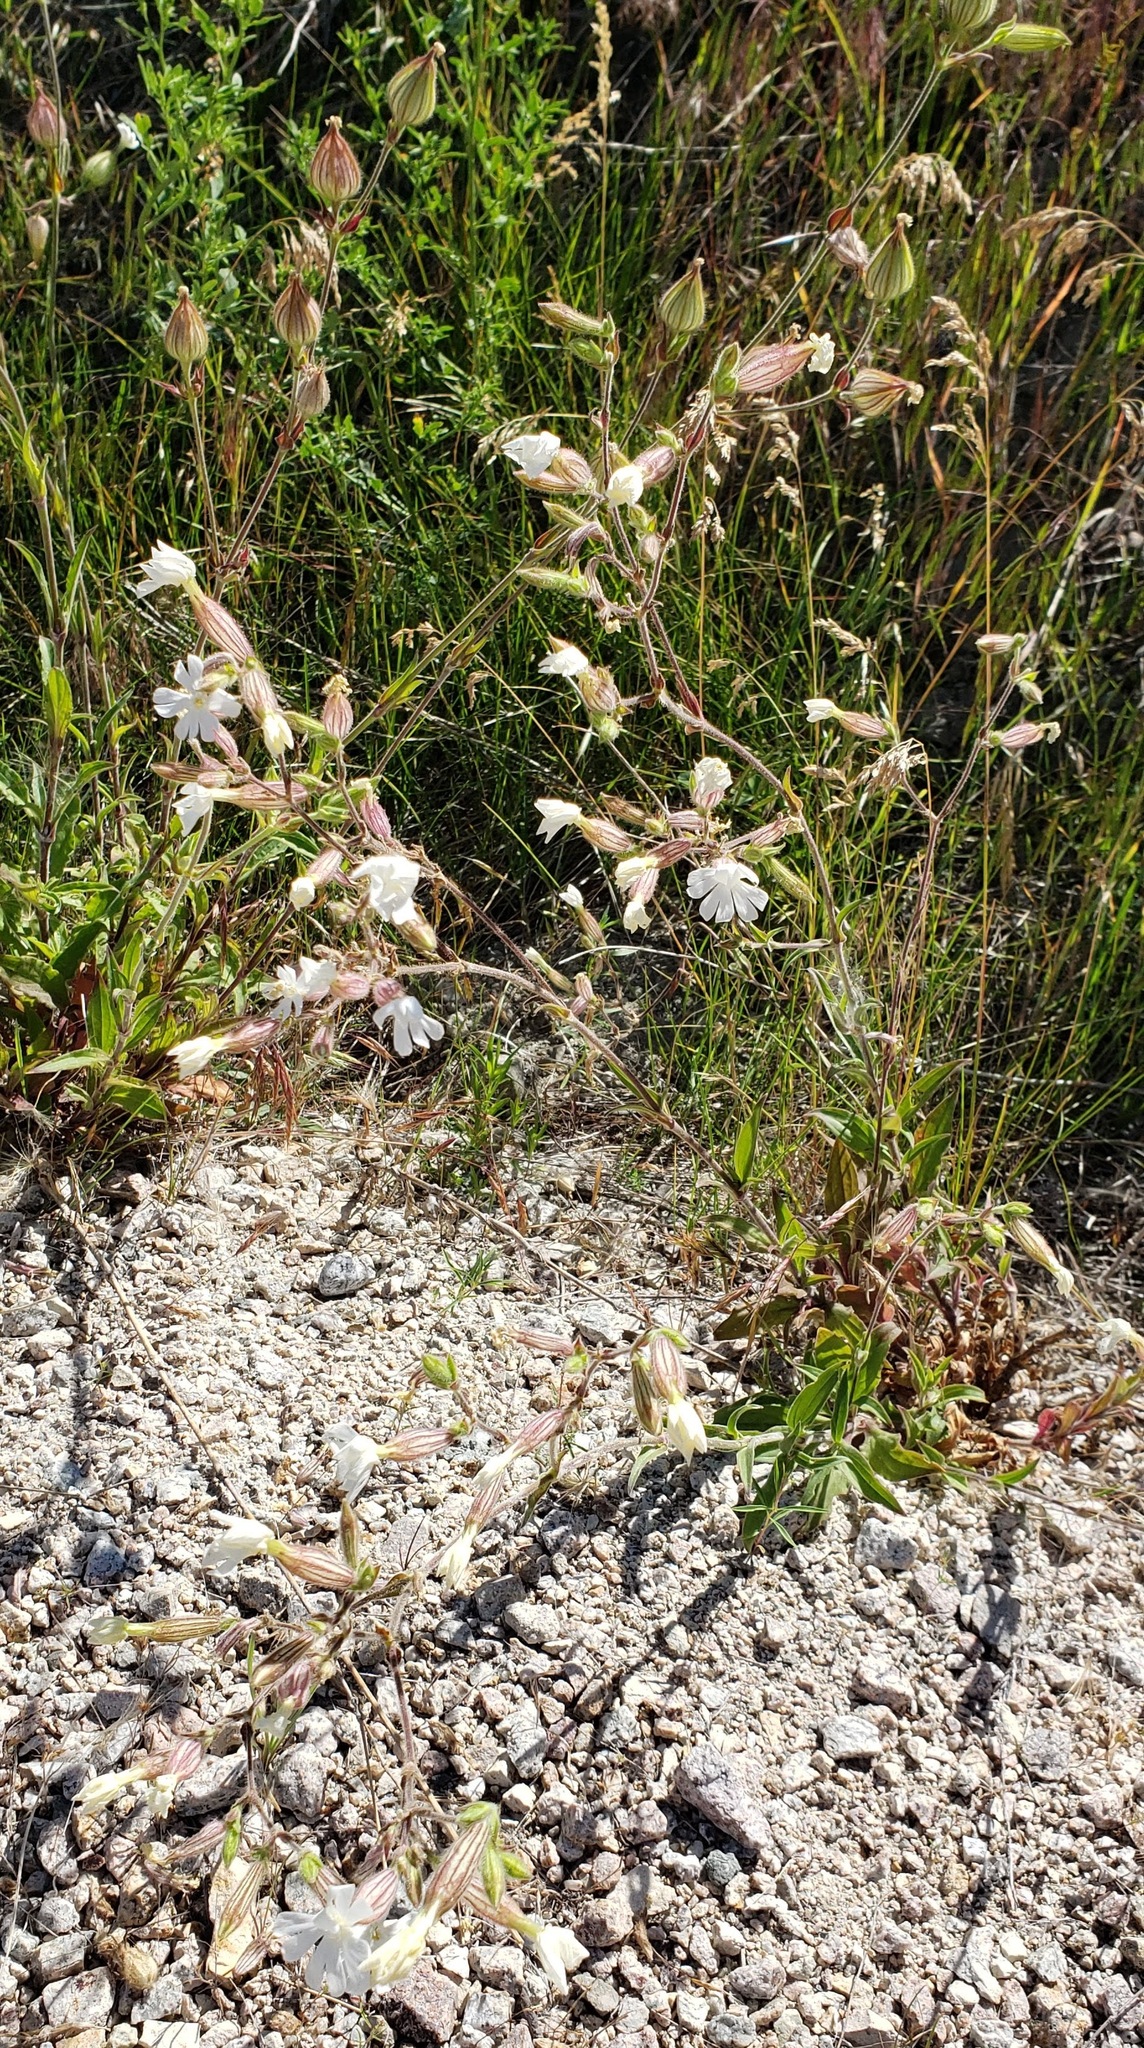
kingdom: Plantae
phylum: Tracheophyta
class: Magnoliopsida
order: Caryophyllales
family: Caryophyllaceae
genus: Silene
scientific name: Silene latifolia
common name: White campion
